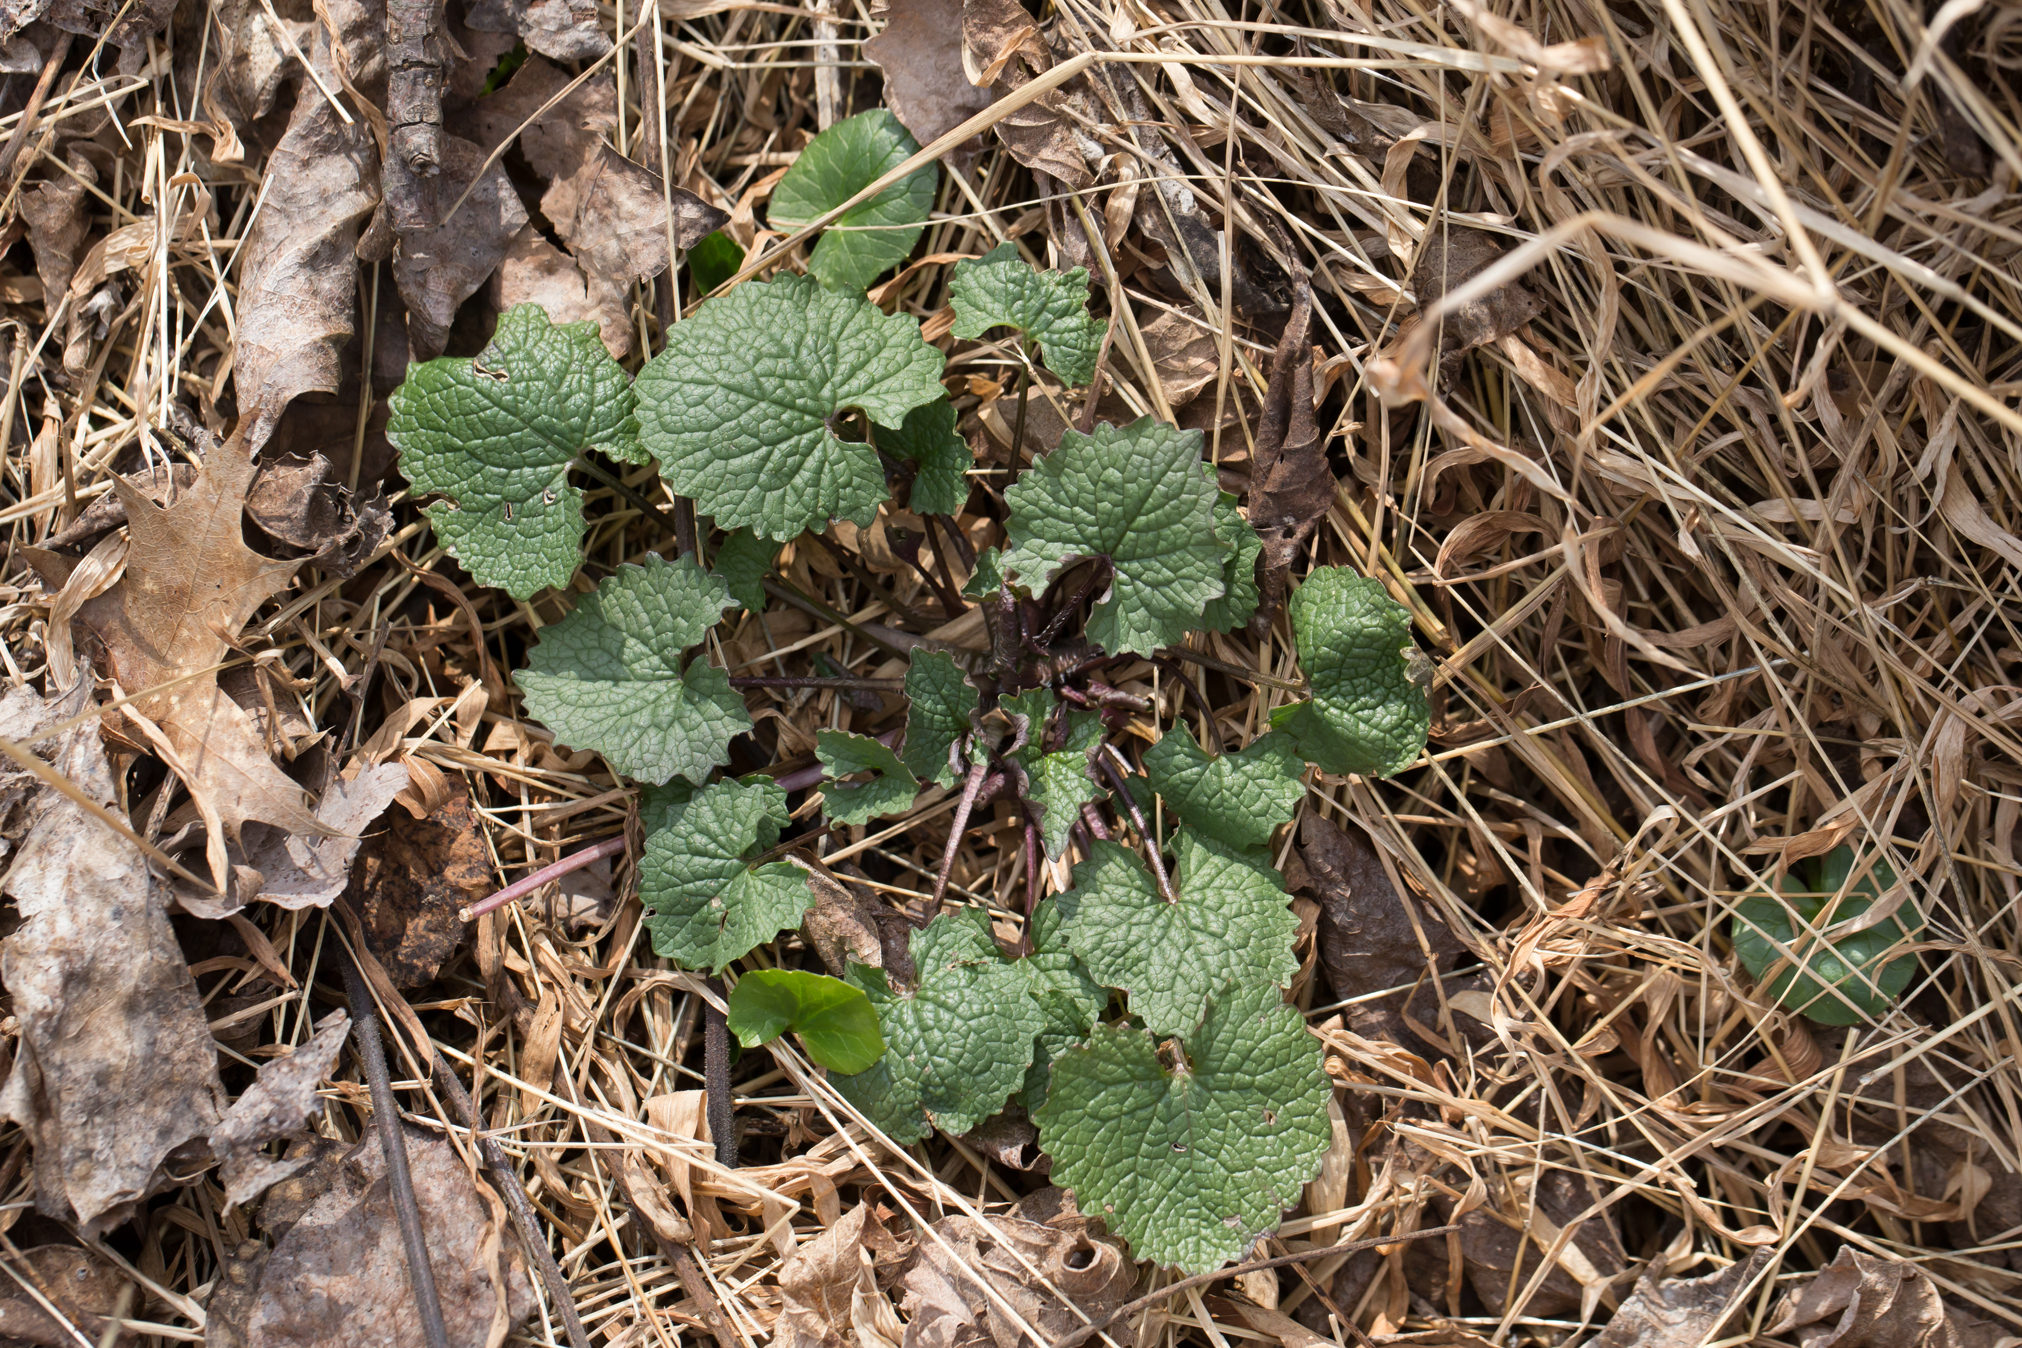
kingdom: Plantae
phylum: Tracheophyta
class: Magnoliopsida
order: Brassicales
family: Brassicaceae
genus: Alliaria
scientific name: Alliaria petiolata
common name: Garlic mustard
